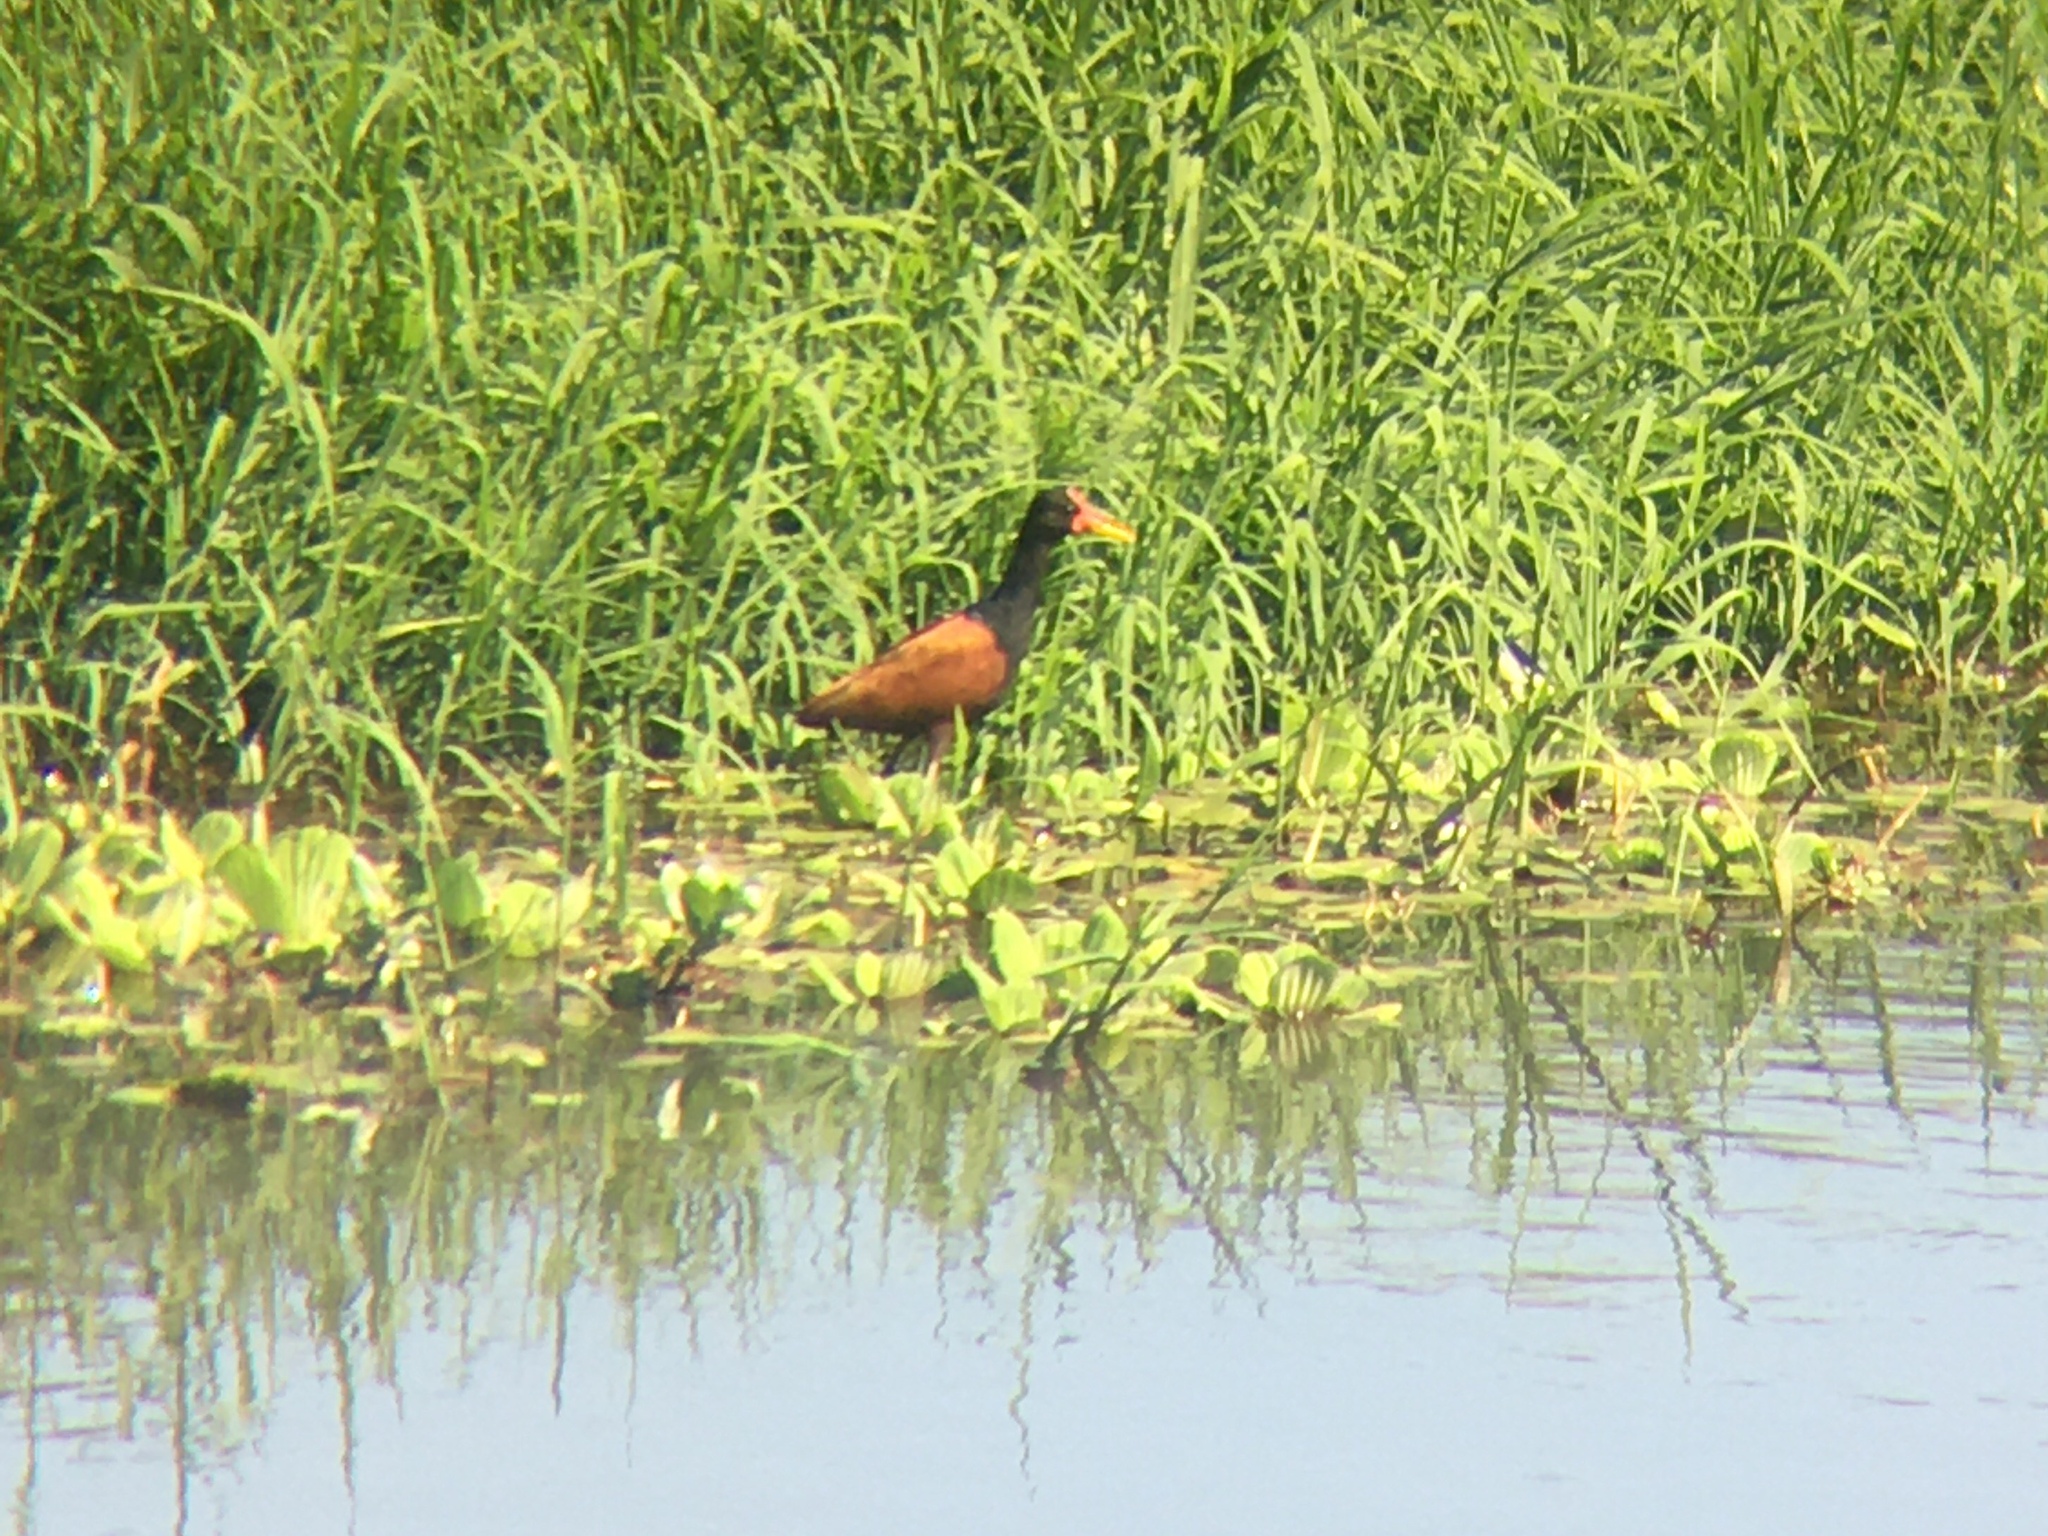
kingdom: Animalia
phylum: Chordata
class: Aves
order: Charadriiformes
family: Jacanidae
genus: Jacana
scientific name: Jacana jacana
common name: Wattled jacana
